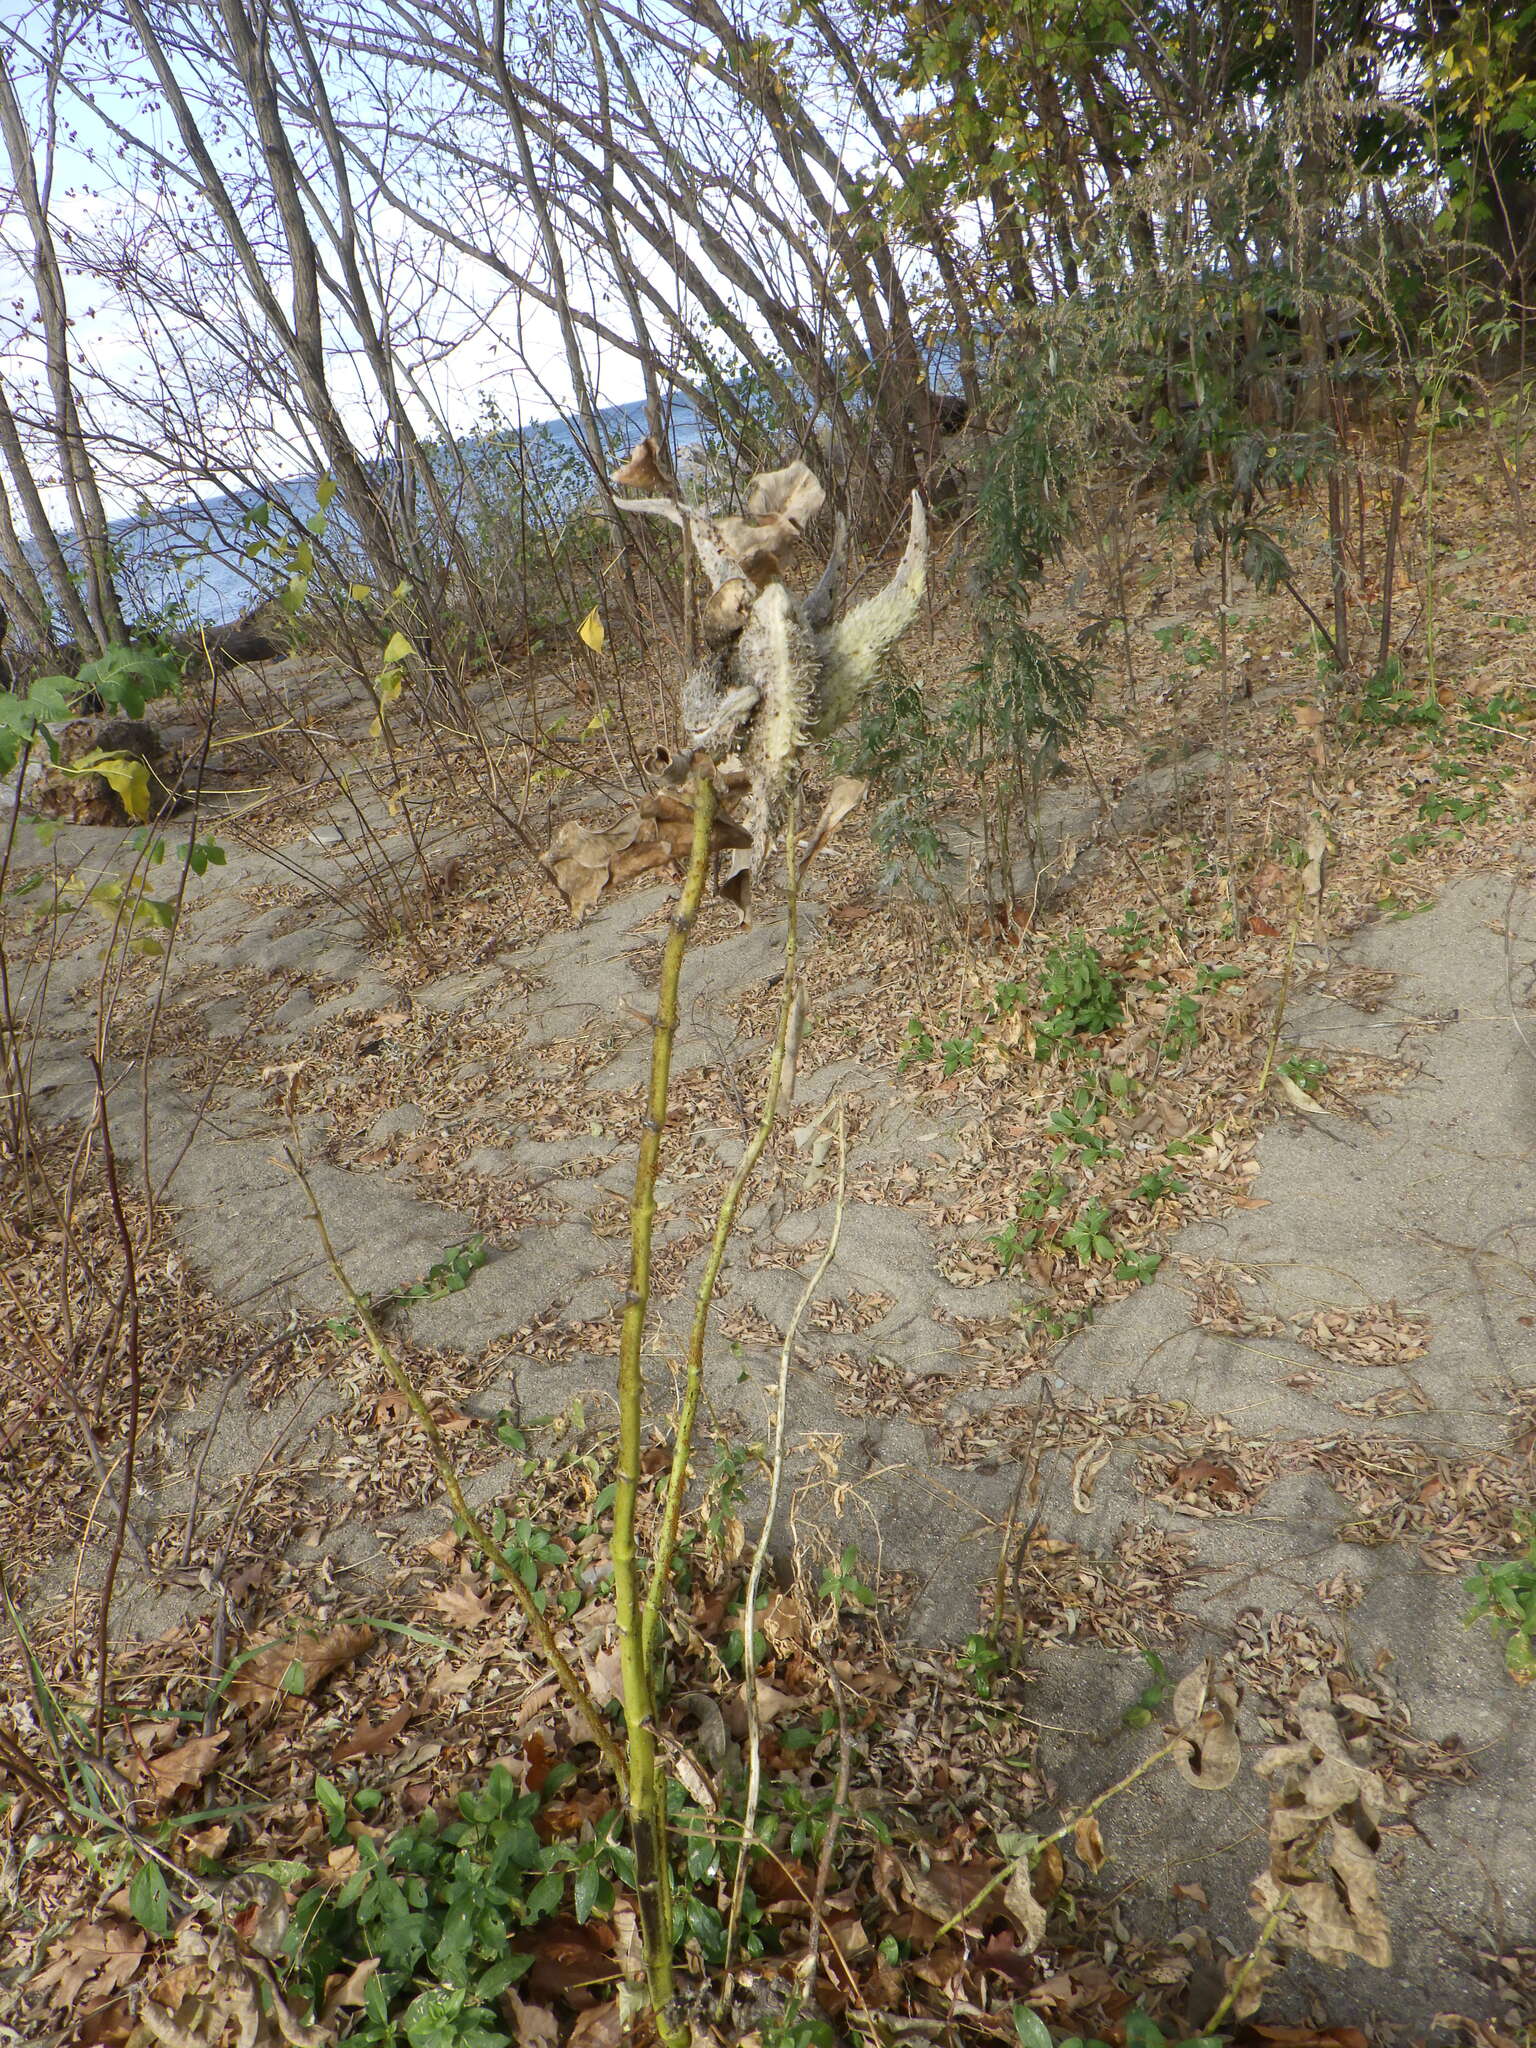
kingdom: Plantae
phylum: Tracheophyta
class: Magnoliopsida
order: Gentianales
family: Apocynaceae
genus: Asclepias
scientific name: Asclepias syriaca
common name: Common milkweed
